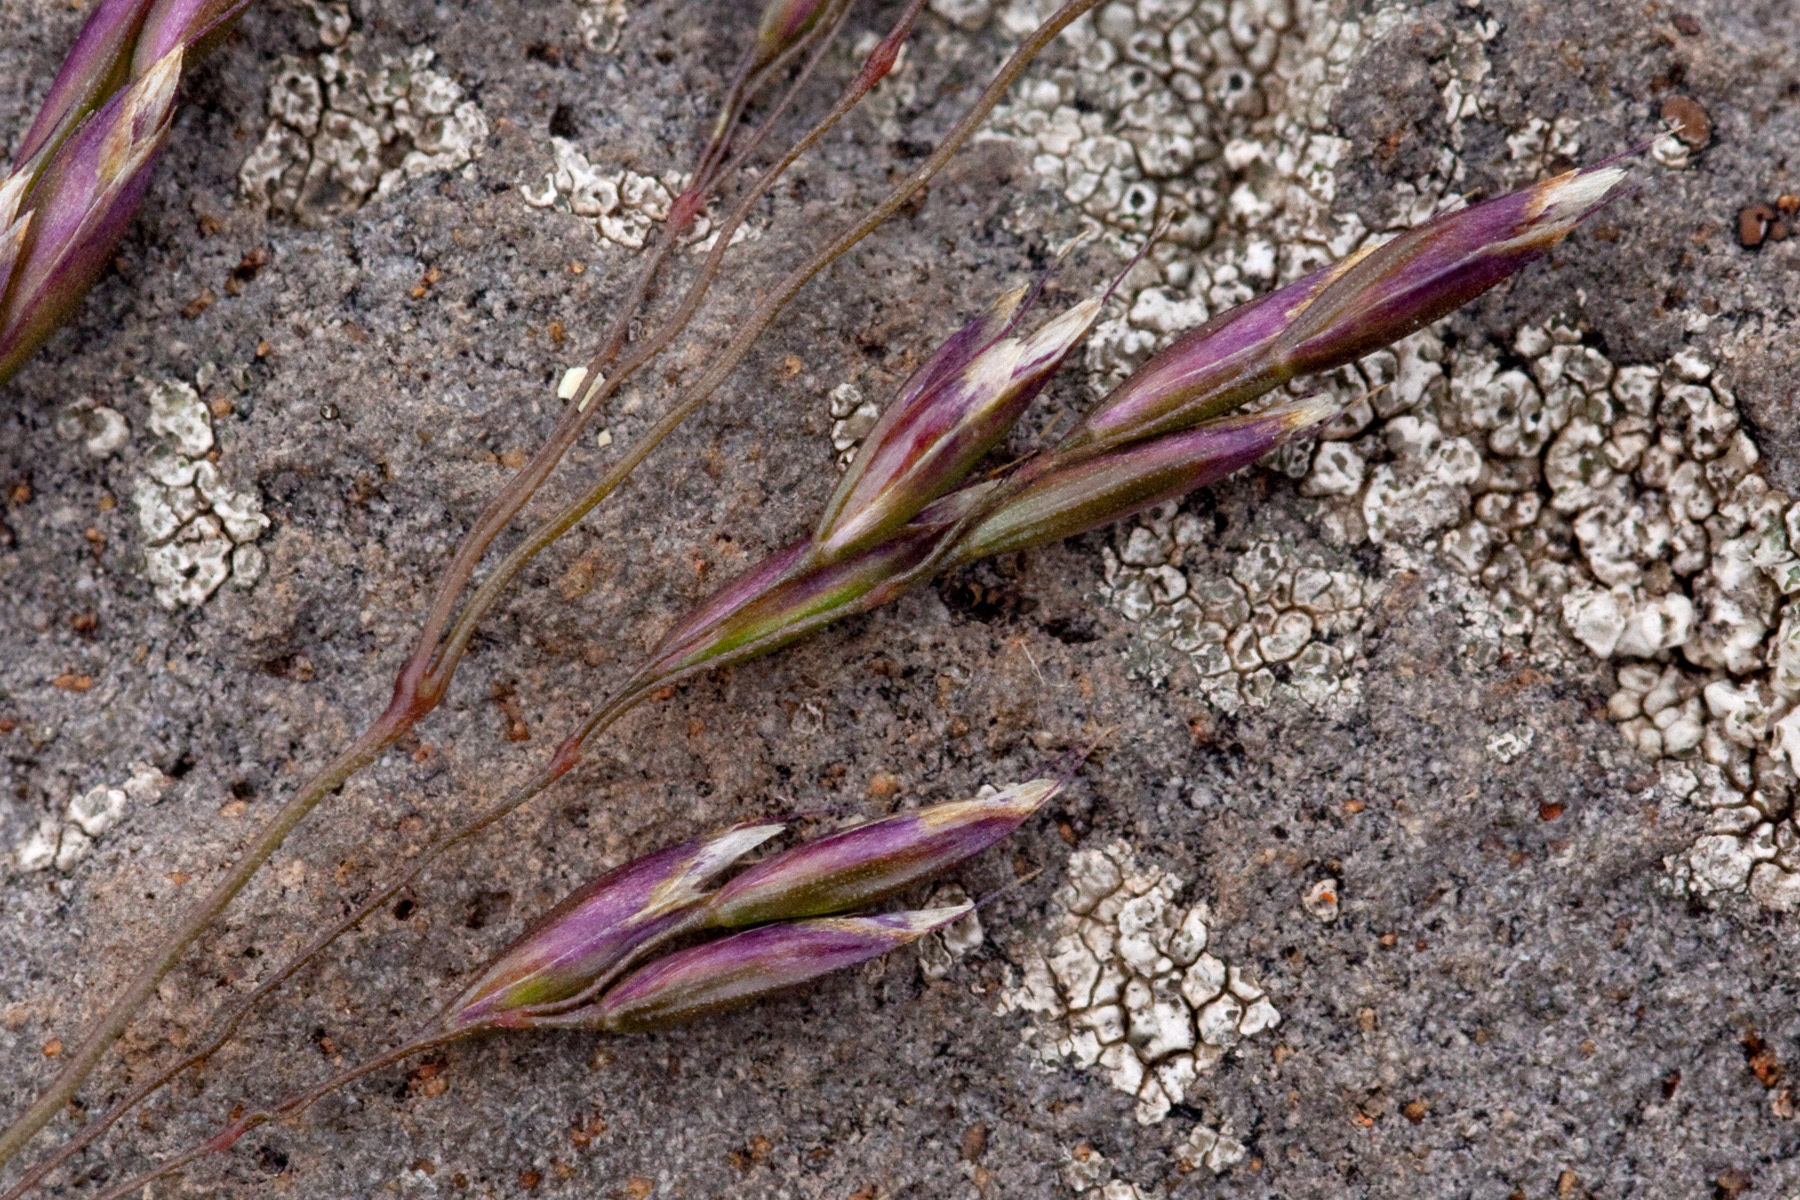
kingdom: Plantae
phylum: Tracheophyta
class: Liliopsida
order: Poales
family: Poaceae
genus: Deschampsia
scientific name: Deschampsia cespitosa
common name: Tufted hair-grass
